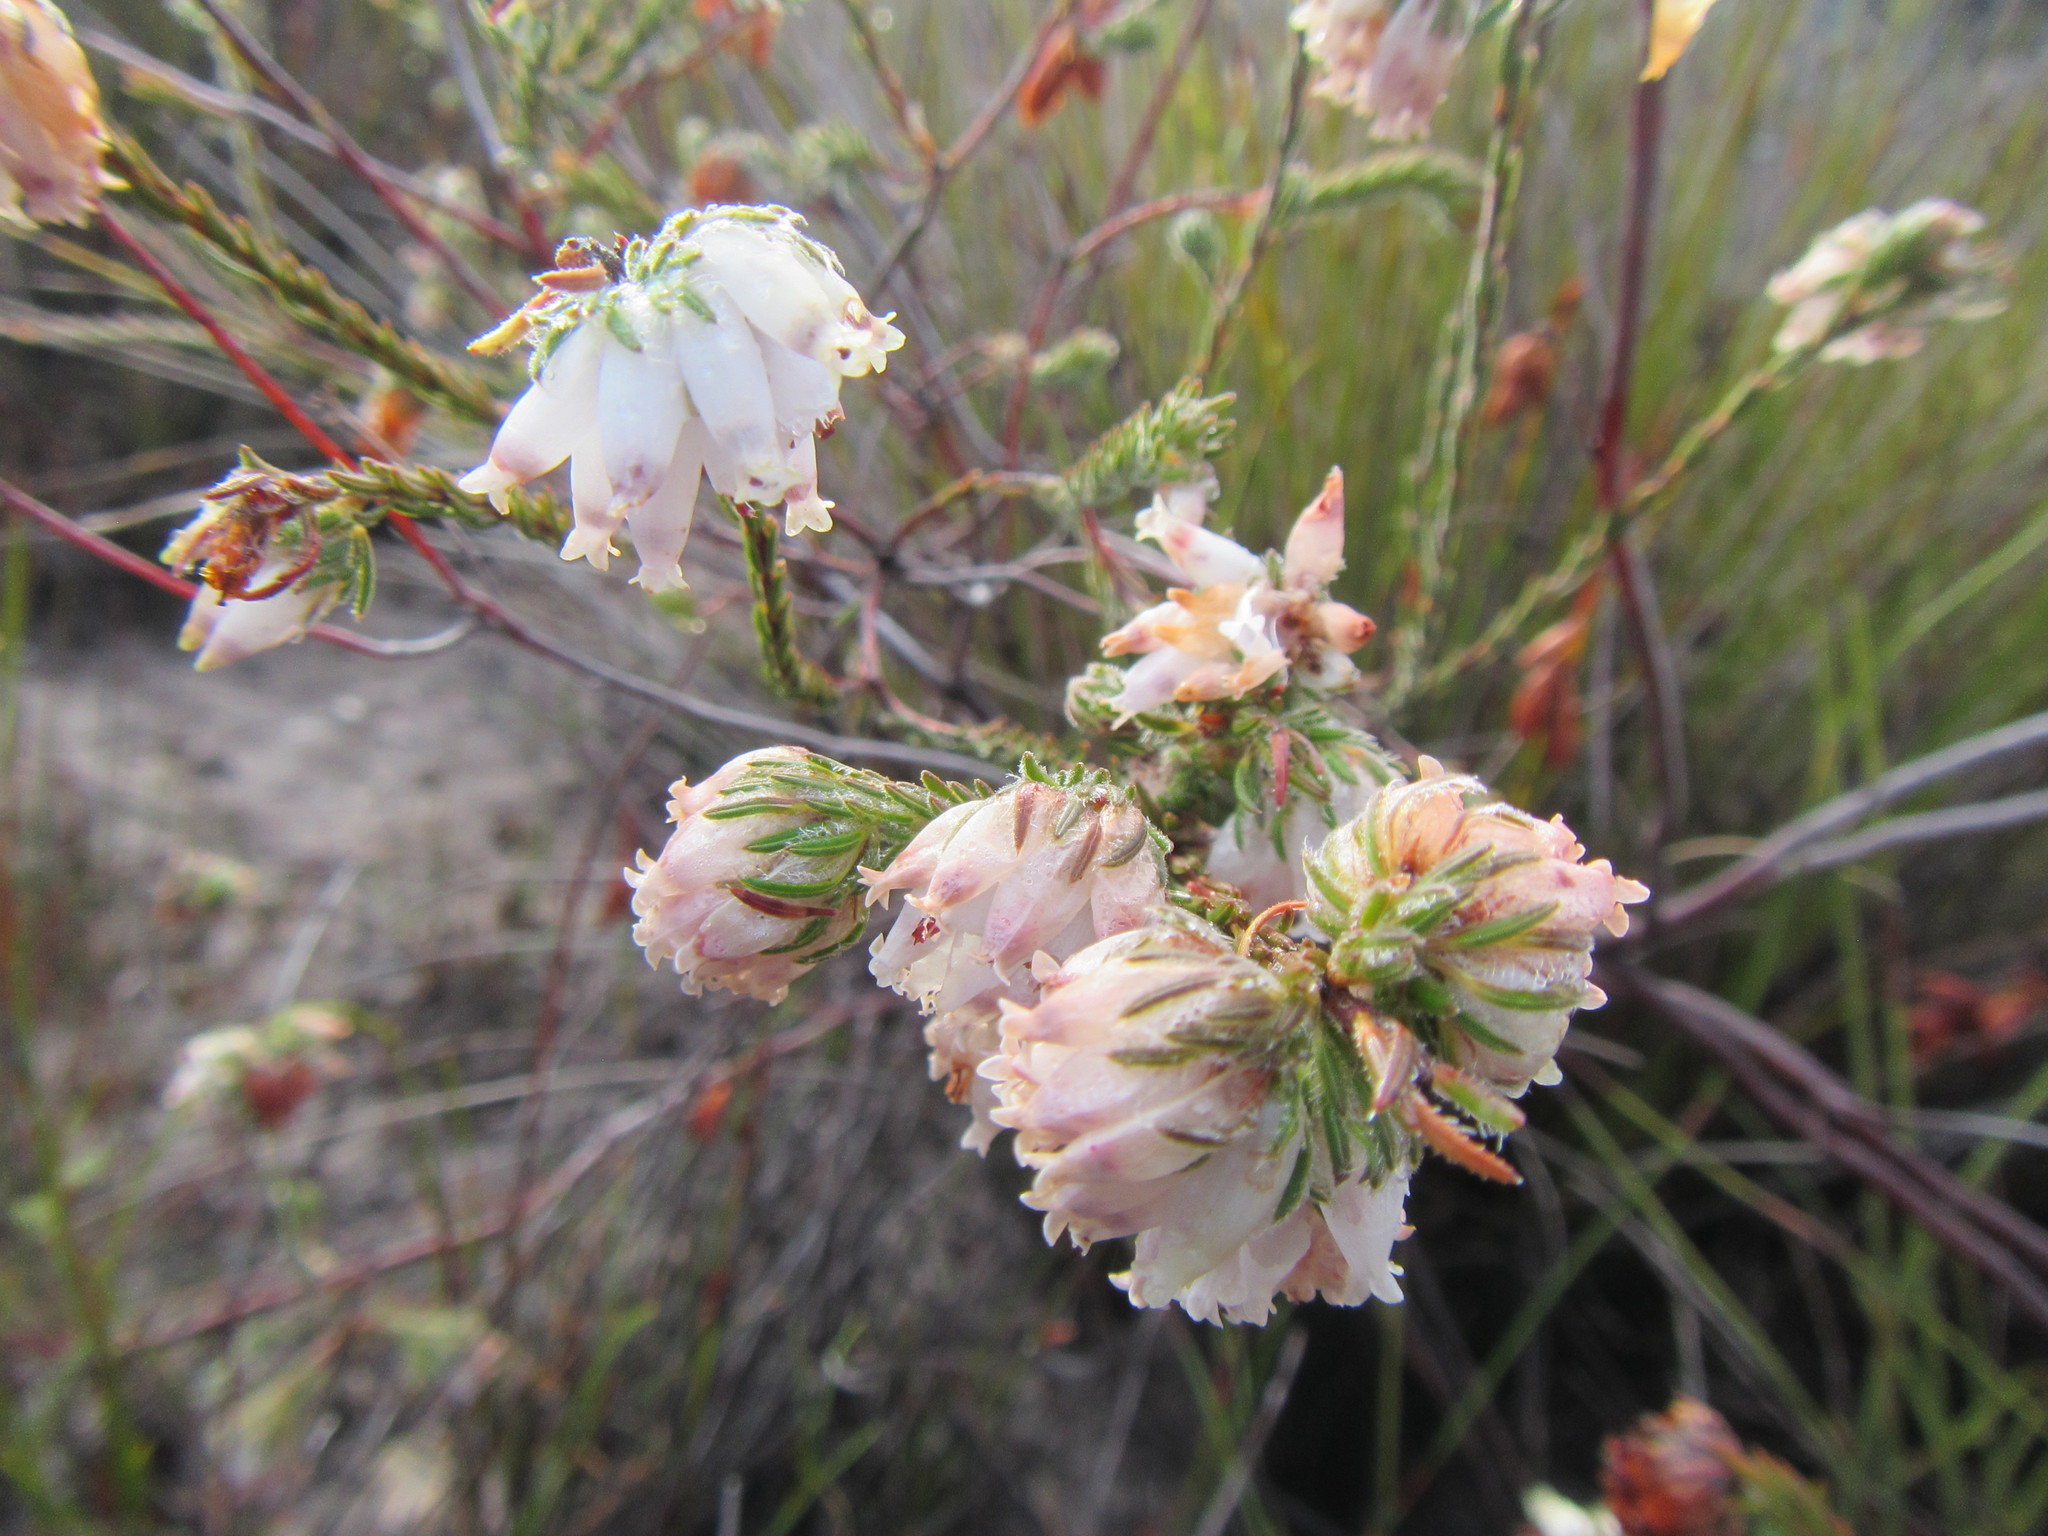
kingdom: Plantae
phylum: Tracheophyta
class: Magnoliopsida
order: Ericales
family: Ericaceae
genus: Erica
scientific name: Erica maderi
